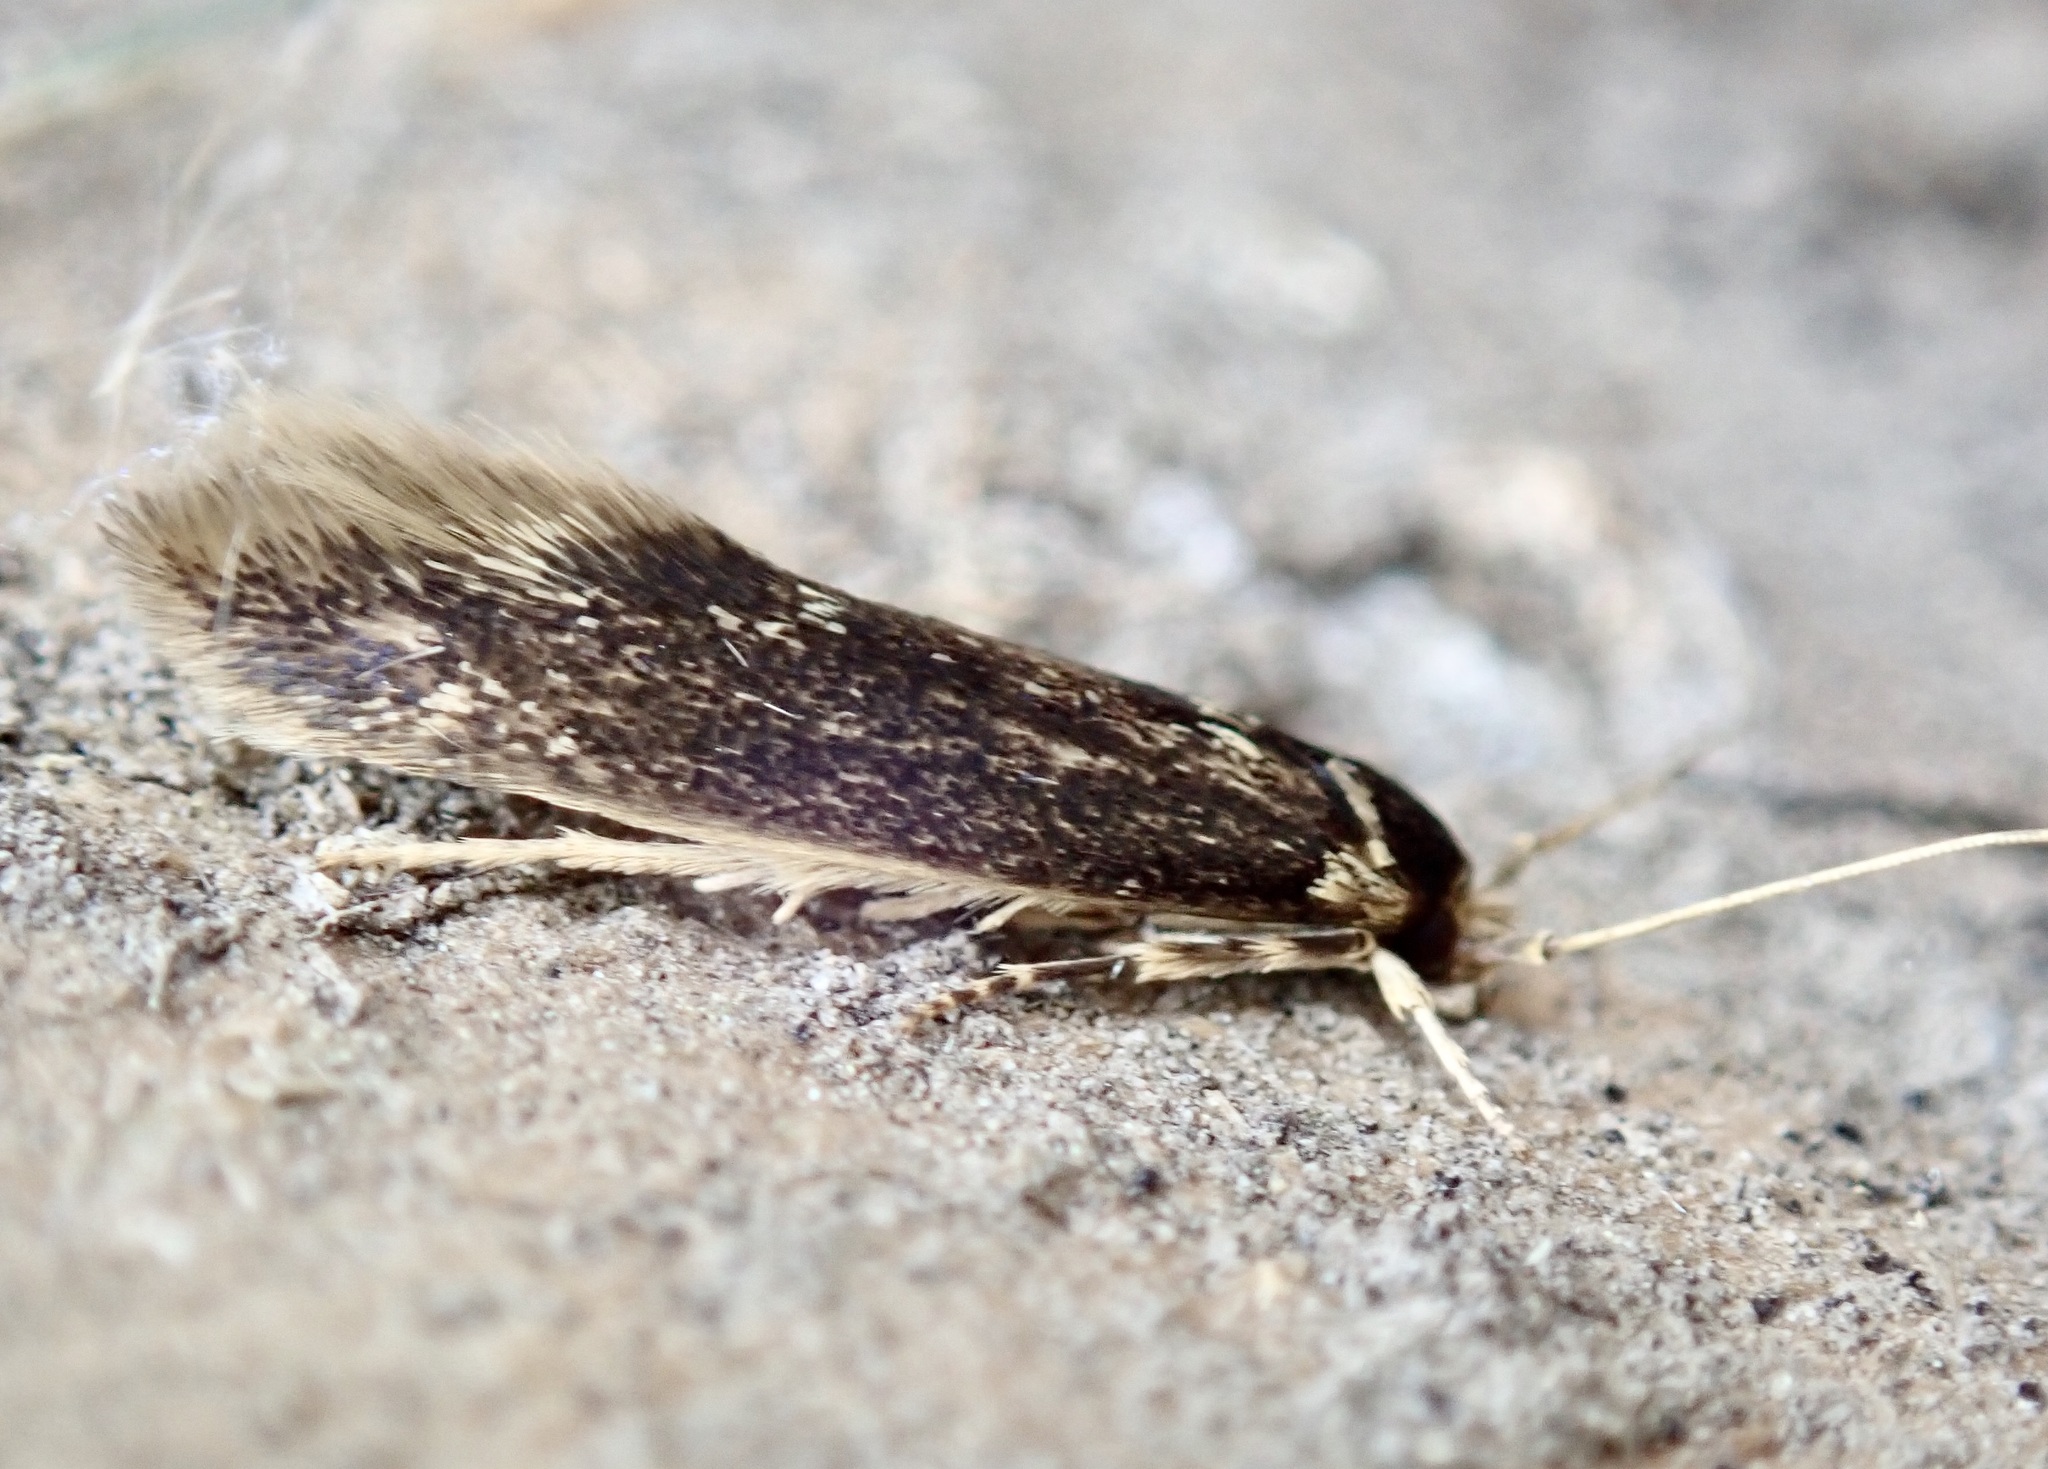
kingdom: Animalia
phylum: Arthropoda
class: Insecta
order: Lepidoptera
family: Tineidae
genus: Opogona
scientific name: Opogona omoscopa
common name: Moth
